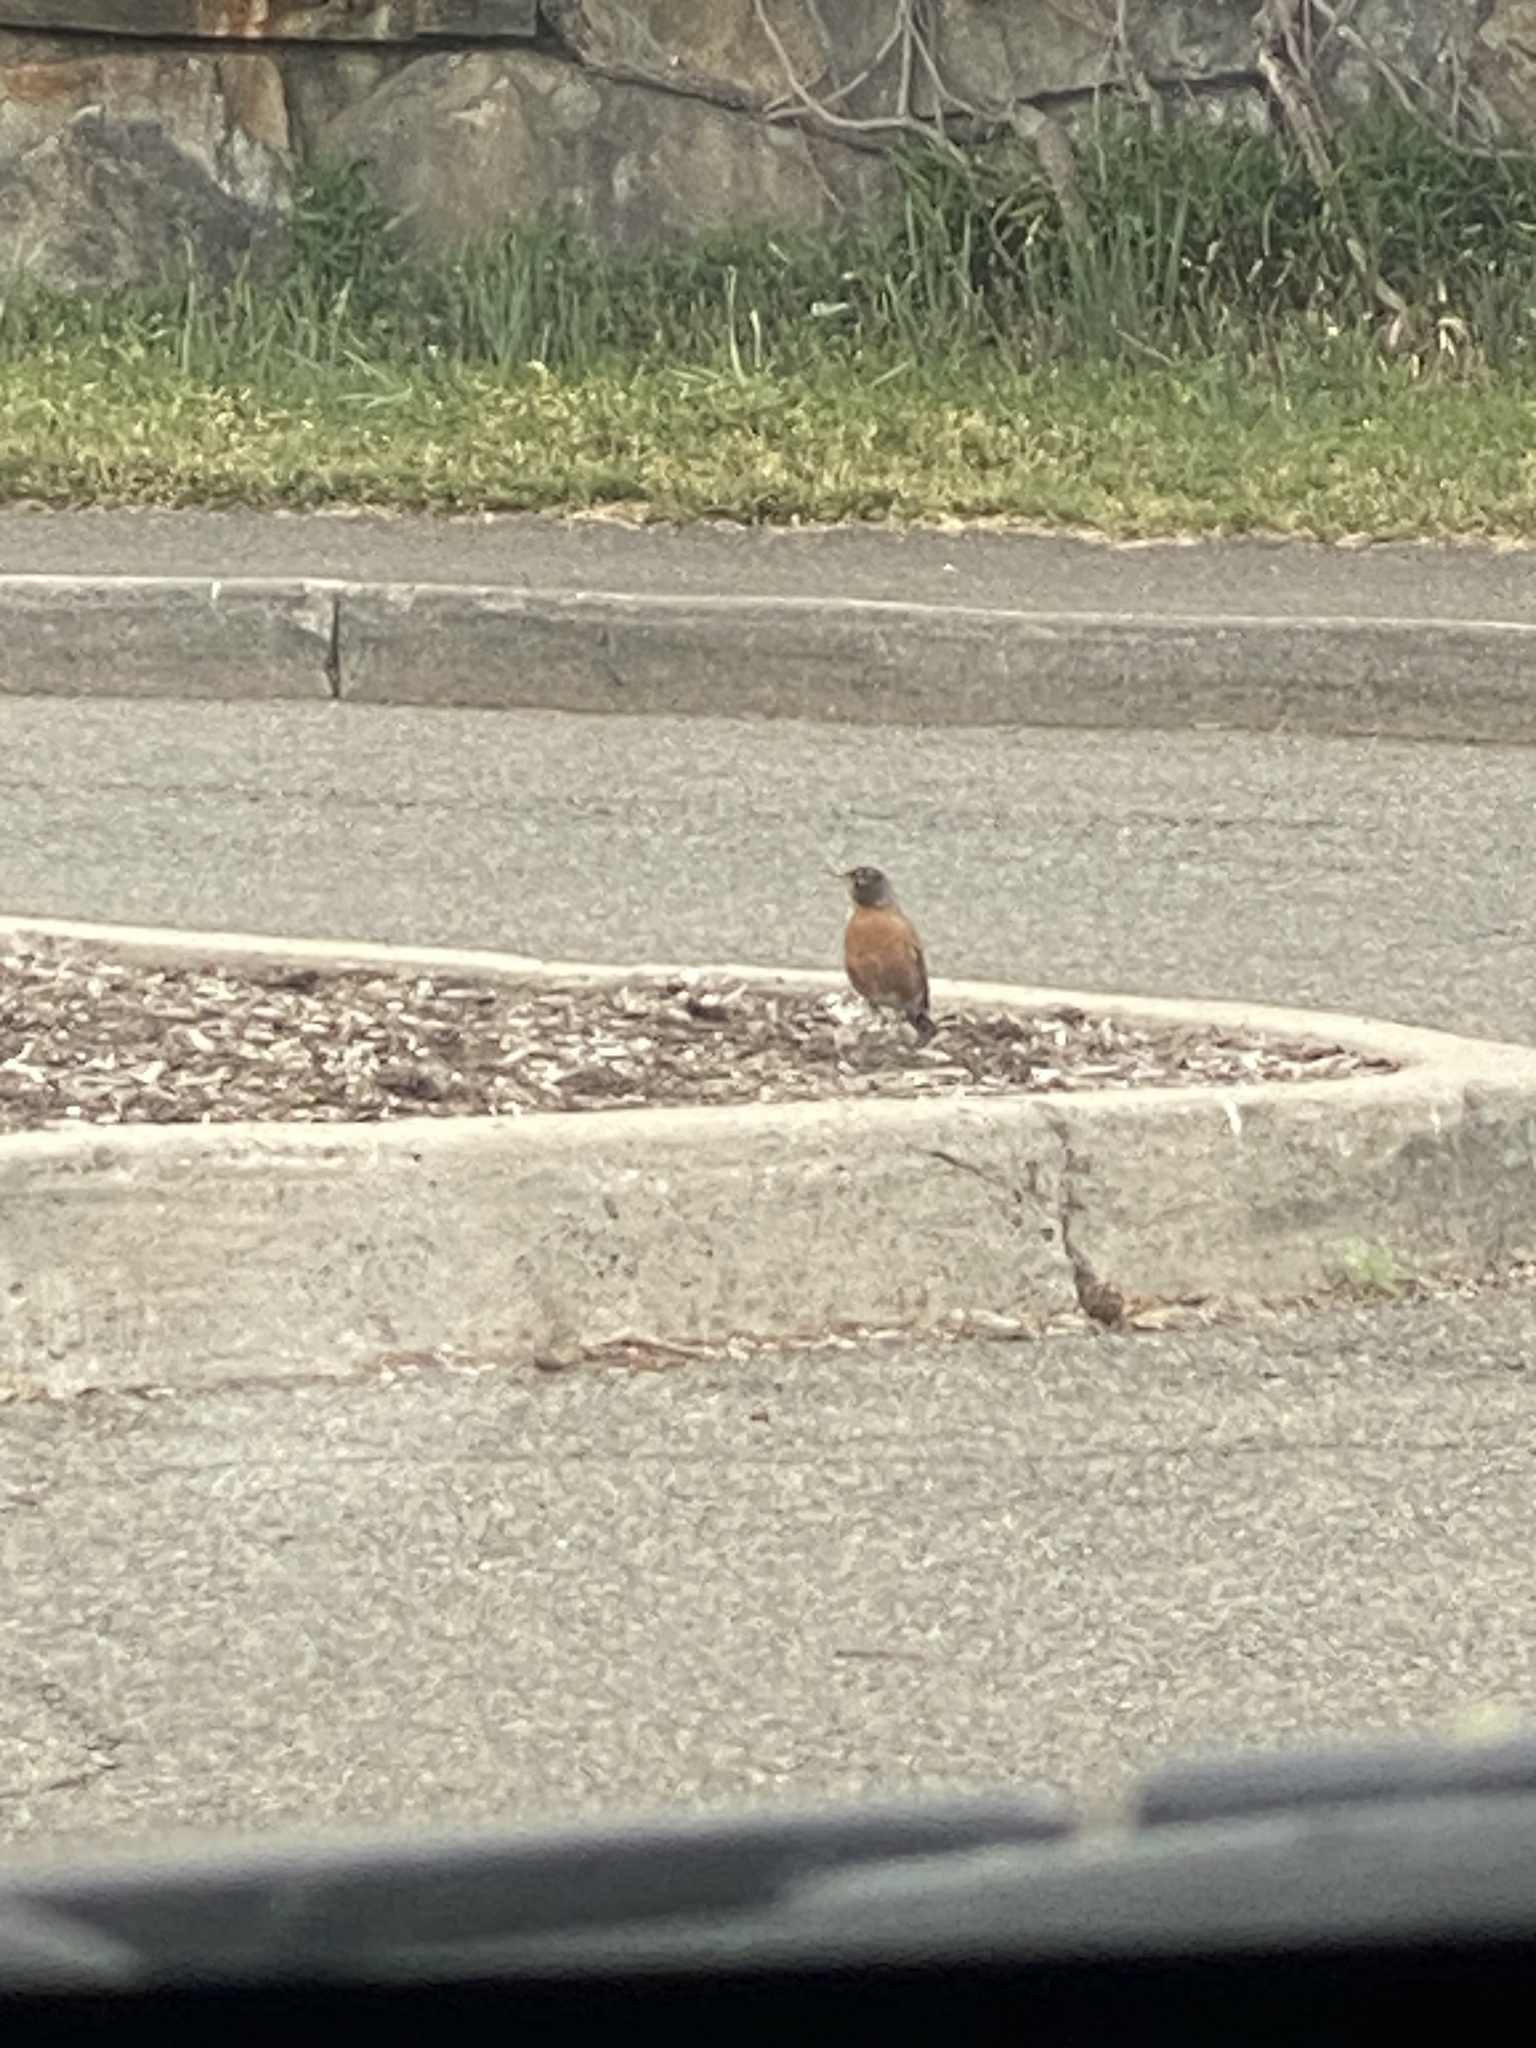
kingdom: Animalia
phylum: Chordata
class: Aves
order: Passeriformes
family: Turdidae
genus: Turdus
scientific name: Turdus migratorius
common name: American robin
